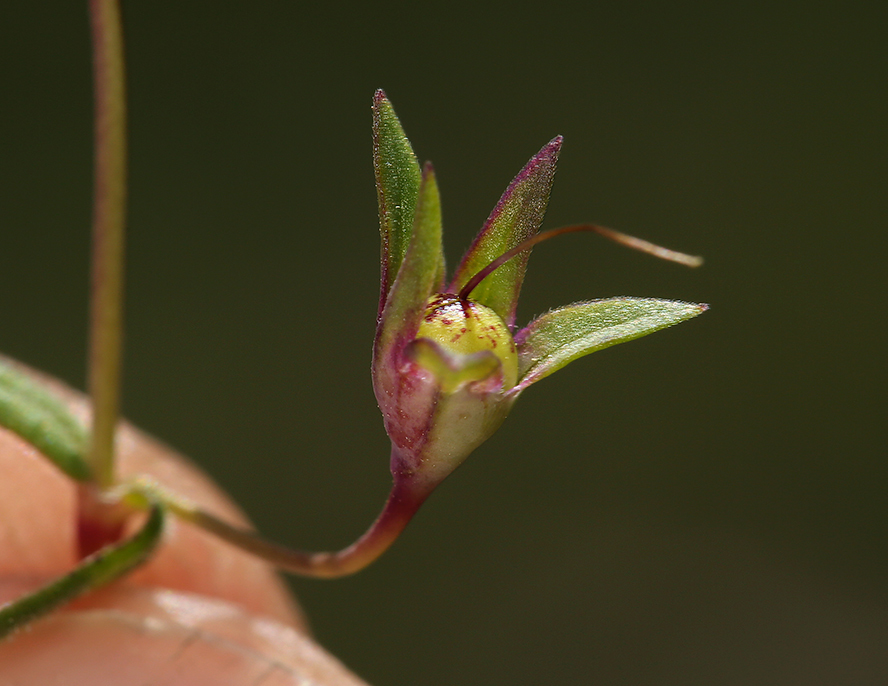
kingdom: Plantae
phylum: Tracheophyta
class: Magnoliopsida
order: Lamiales
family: Plantaginaceae
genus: Collinsia
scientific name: Collinsia sparsiflora
